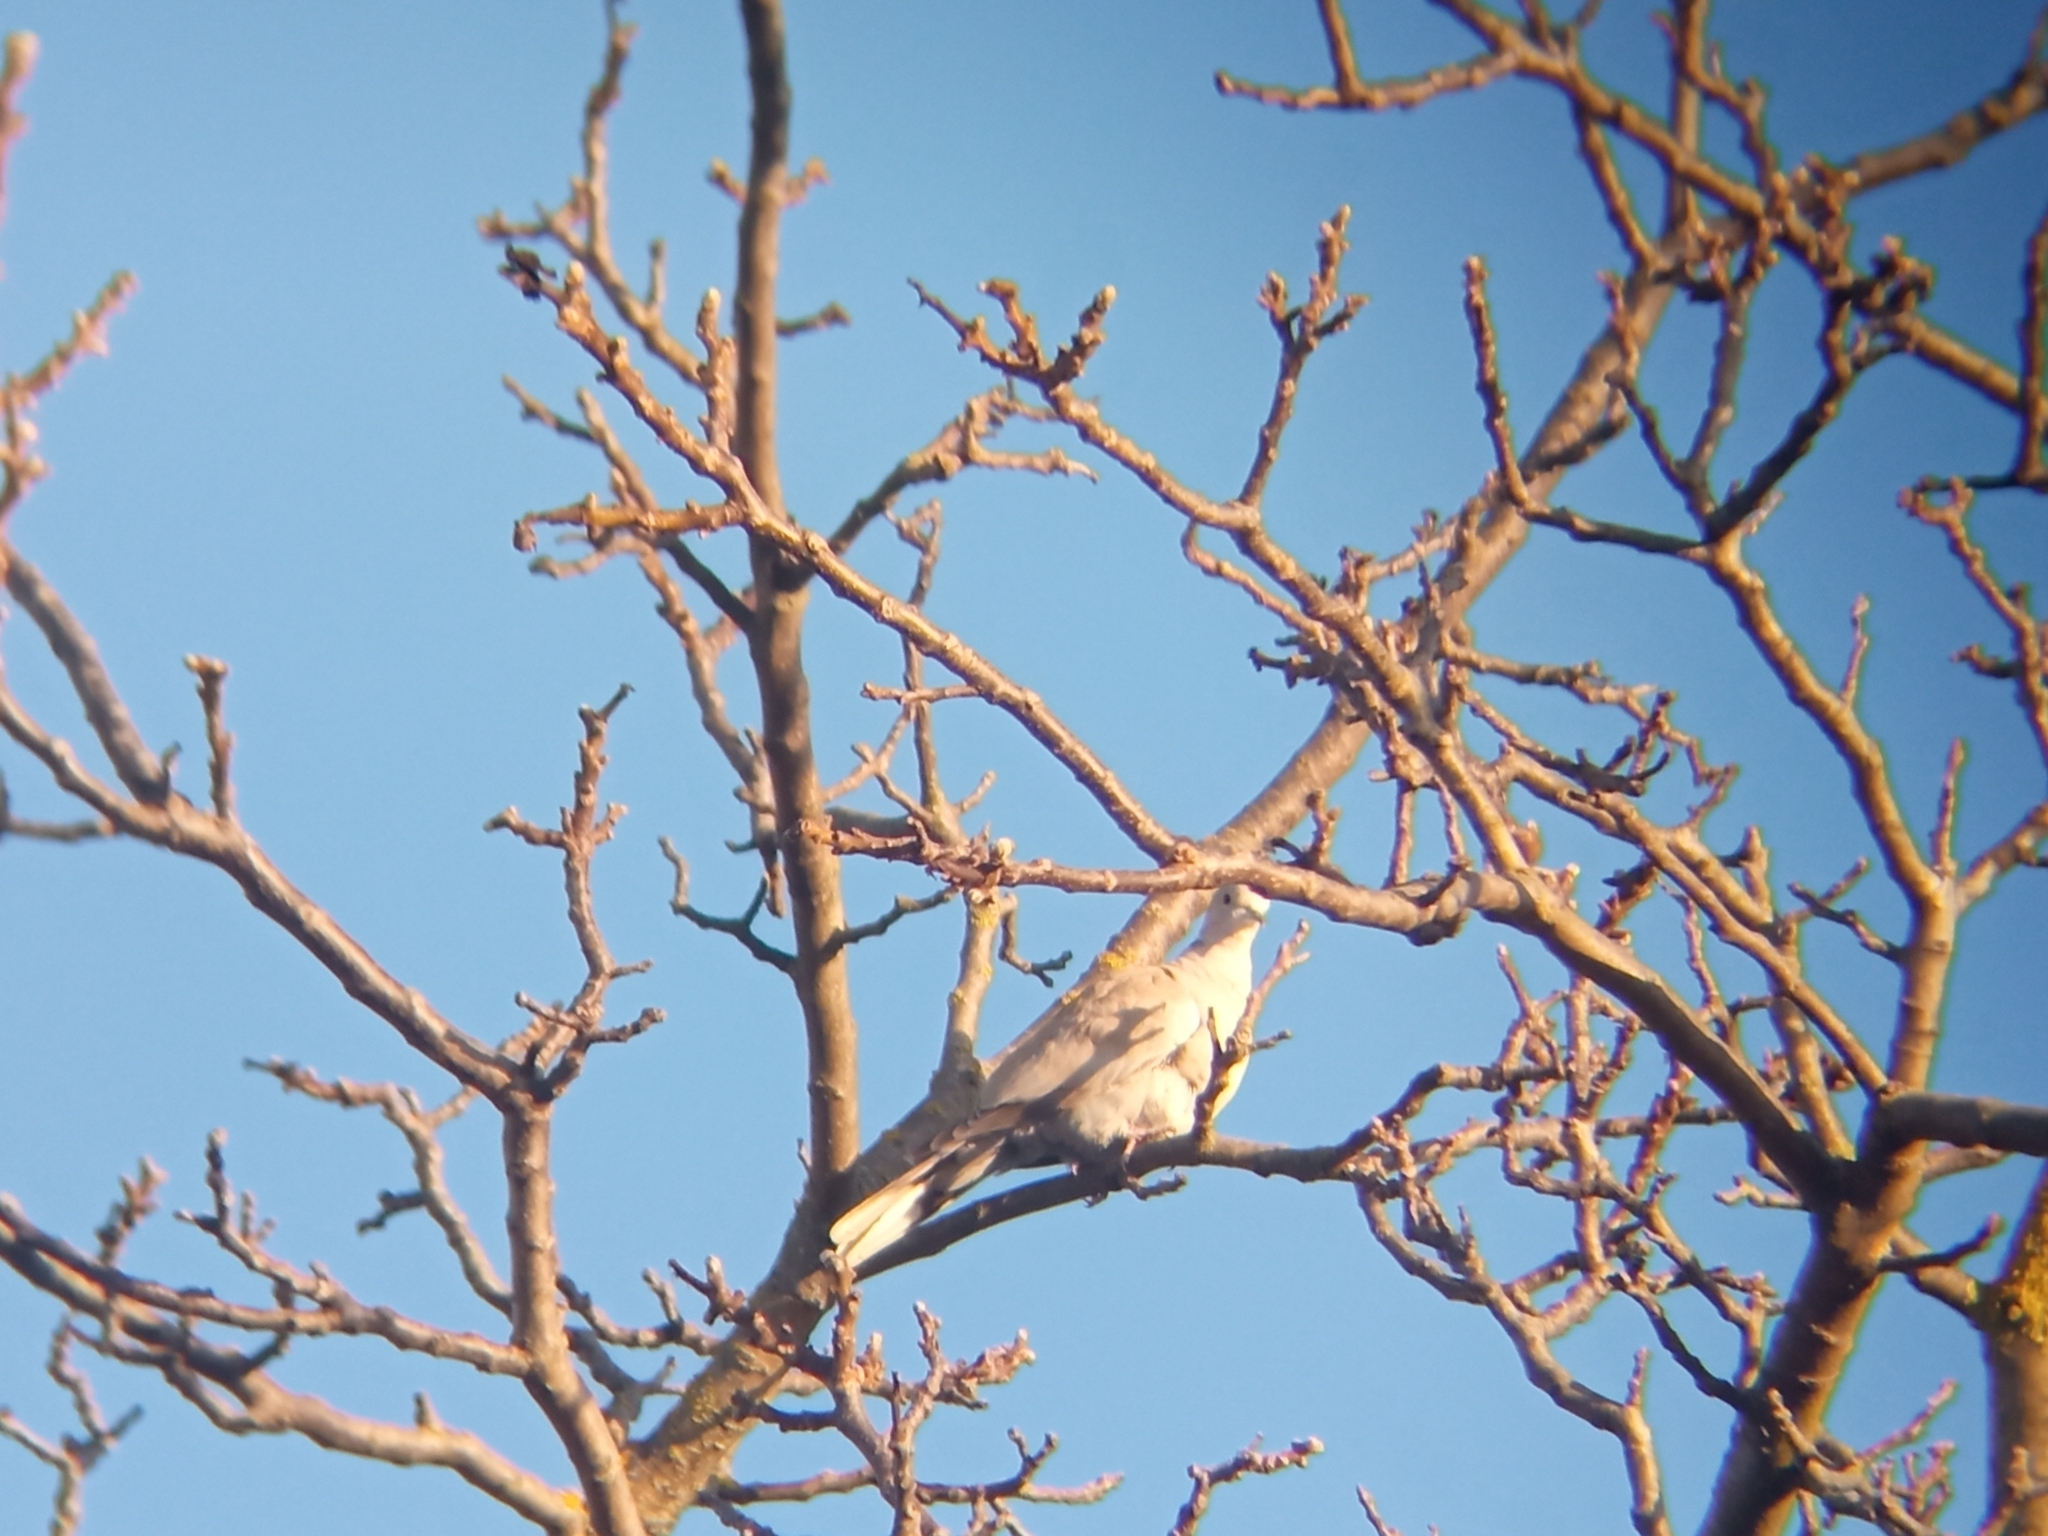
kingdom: Animalia
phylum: Chordata
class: Aves
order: Columbiformes
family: Columbidae
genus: Streptopelia
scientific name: Streptopelia decaocto
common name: Eurasian collared dove
